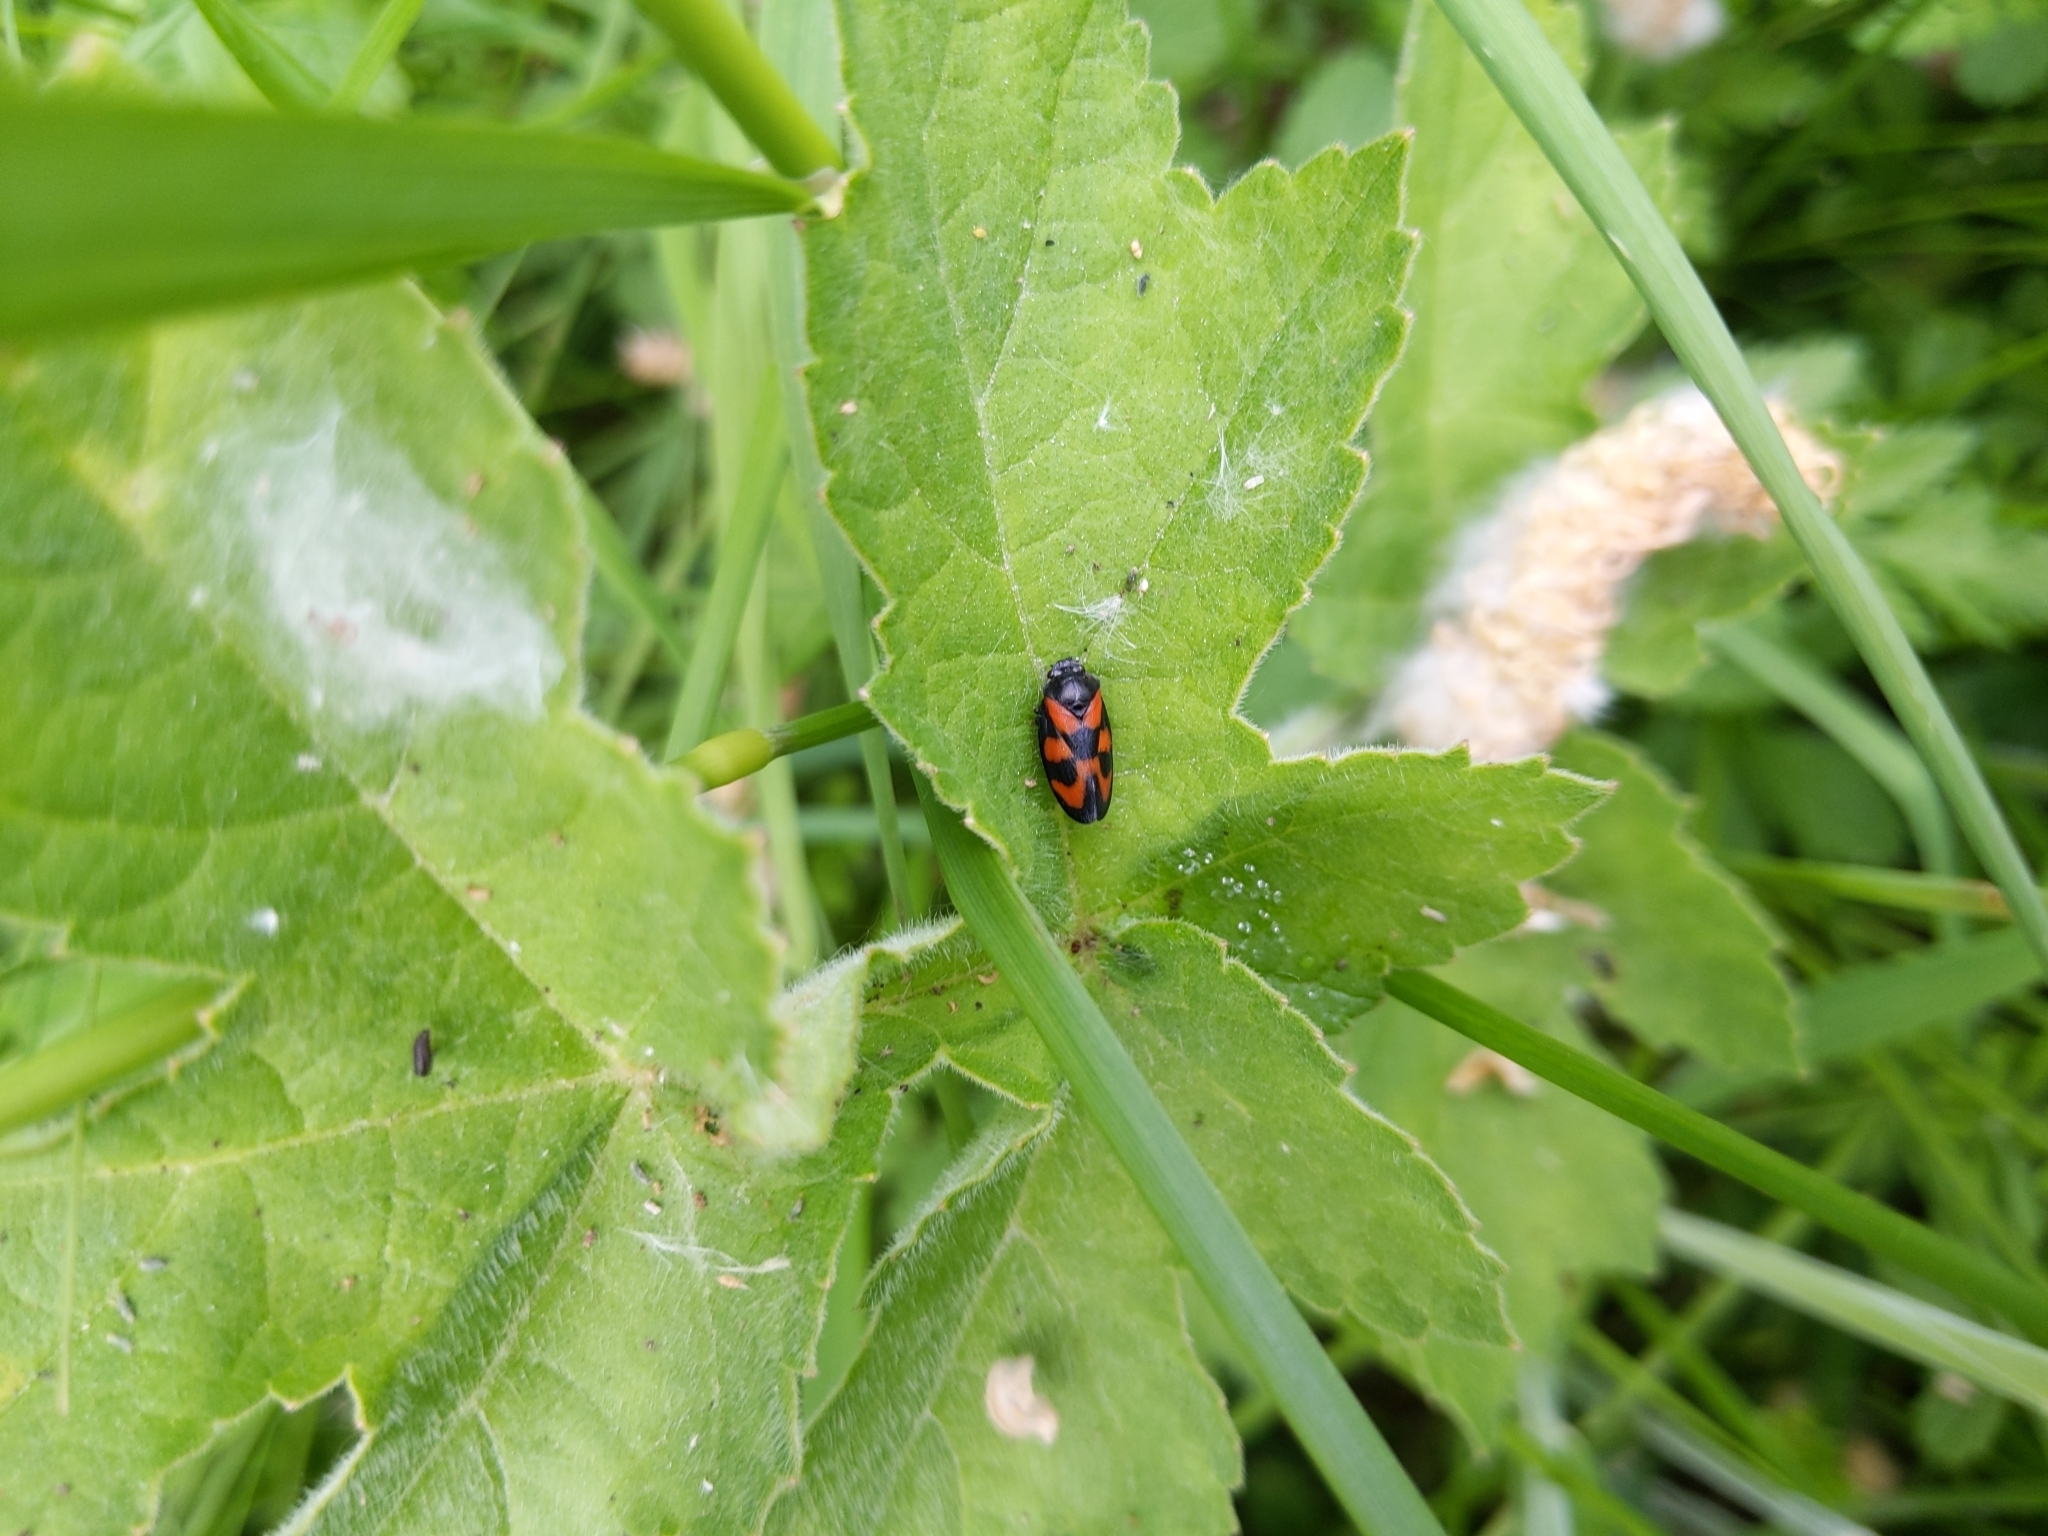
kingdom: Animalia
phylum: Arthropoda
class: Insecta
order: Hemiptera
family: Cercopidae
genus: Cercopis
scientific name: Cercopis vulnerata
